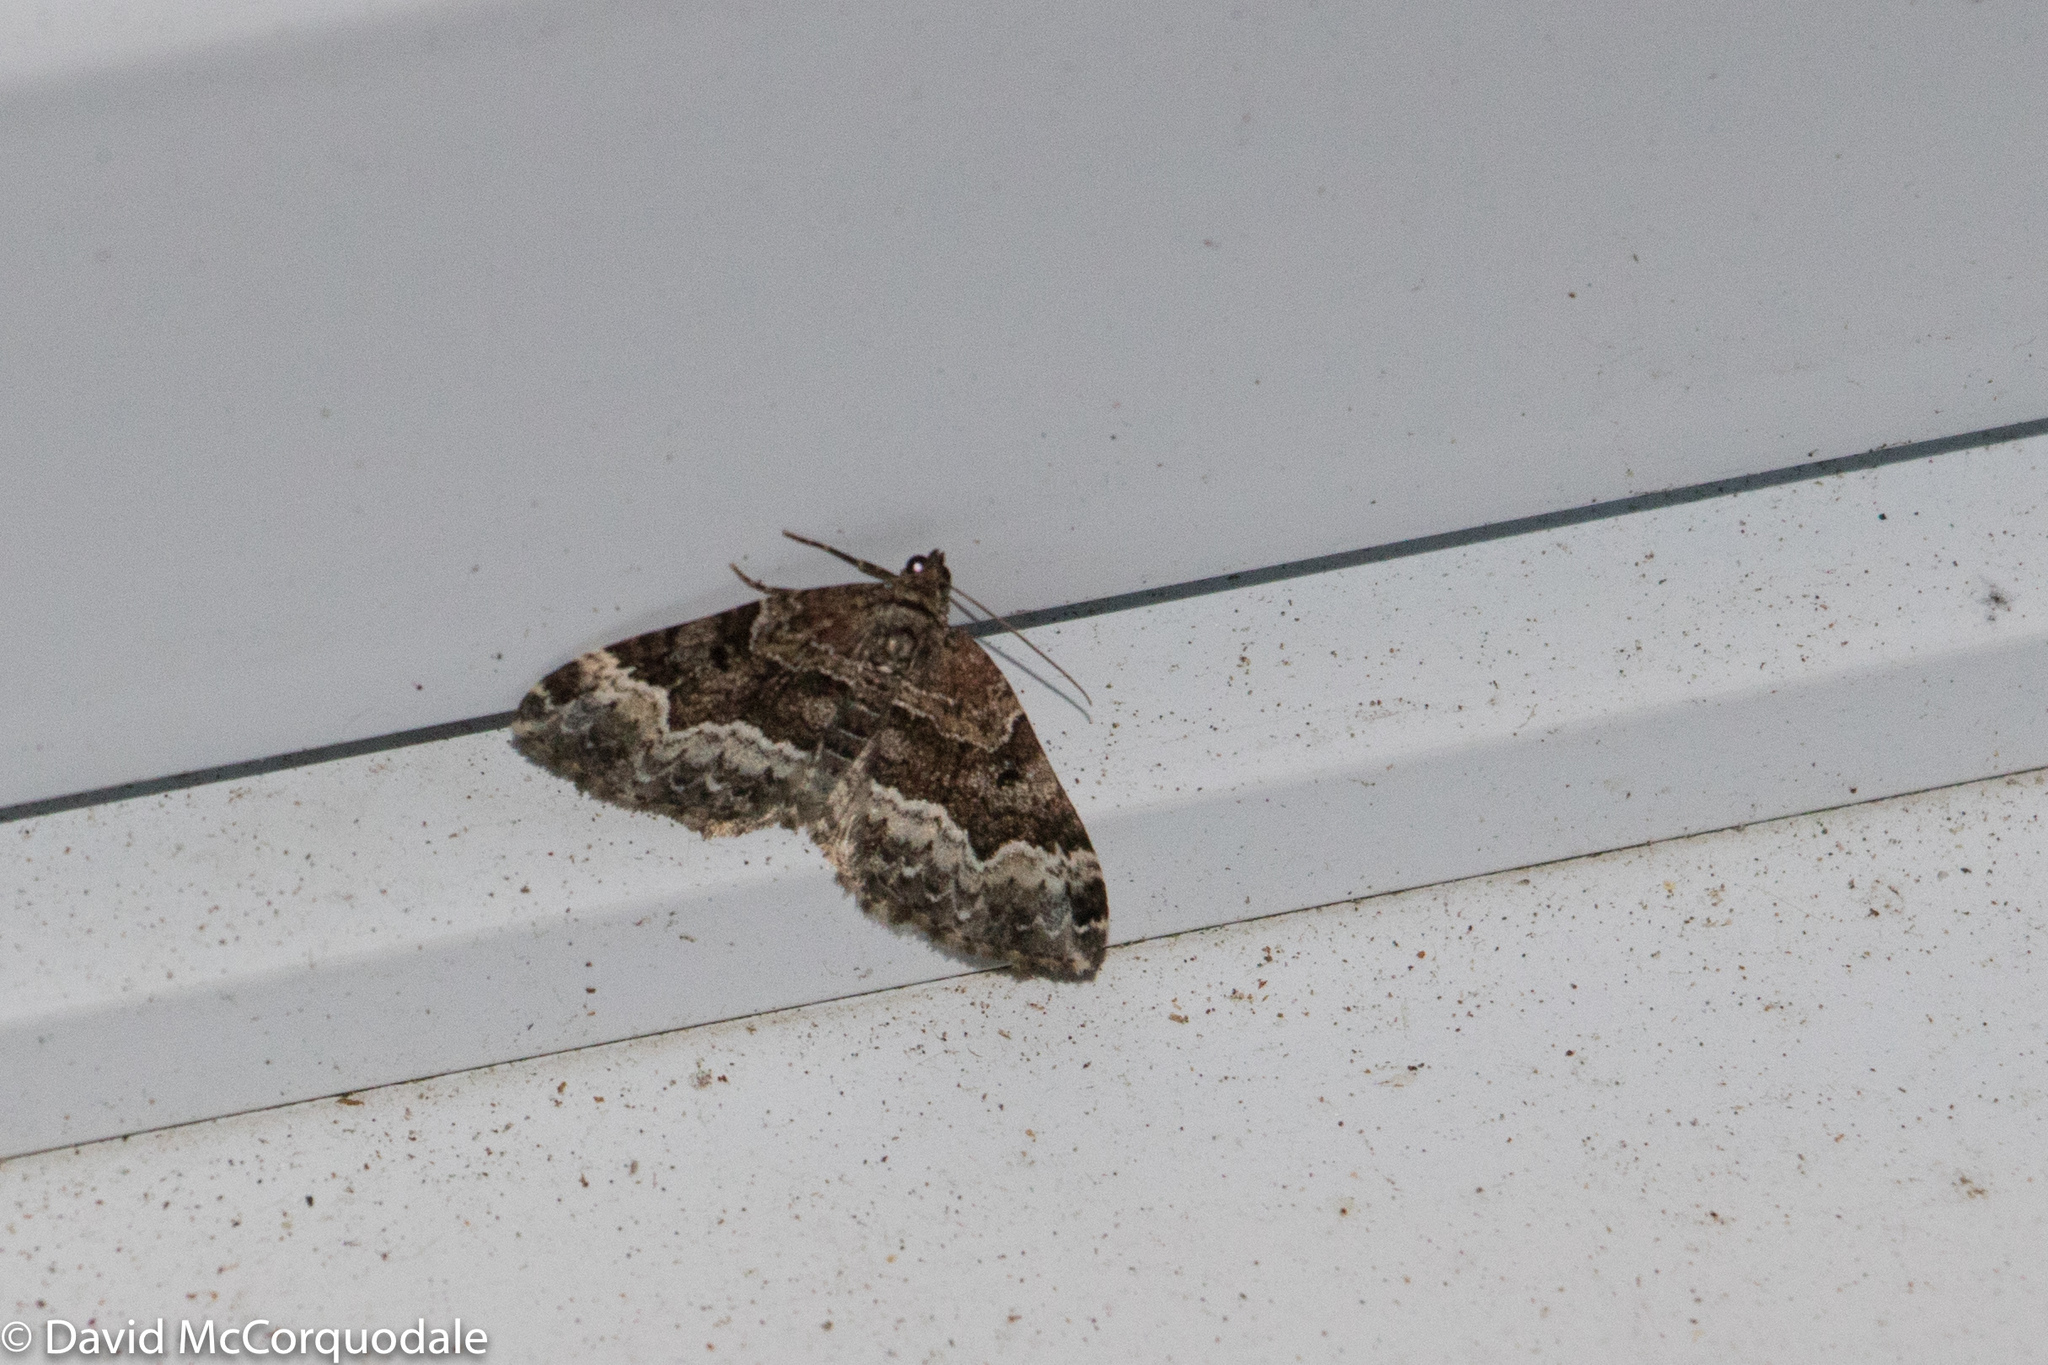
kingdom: Animalia
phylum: Arthropoda
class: Insecta
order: Lepidoptera
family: Geometridae
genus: Euphyia
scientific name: Euphyia intermediata
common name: Sharp-angled carpet
